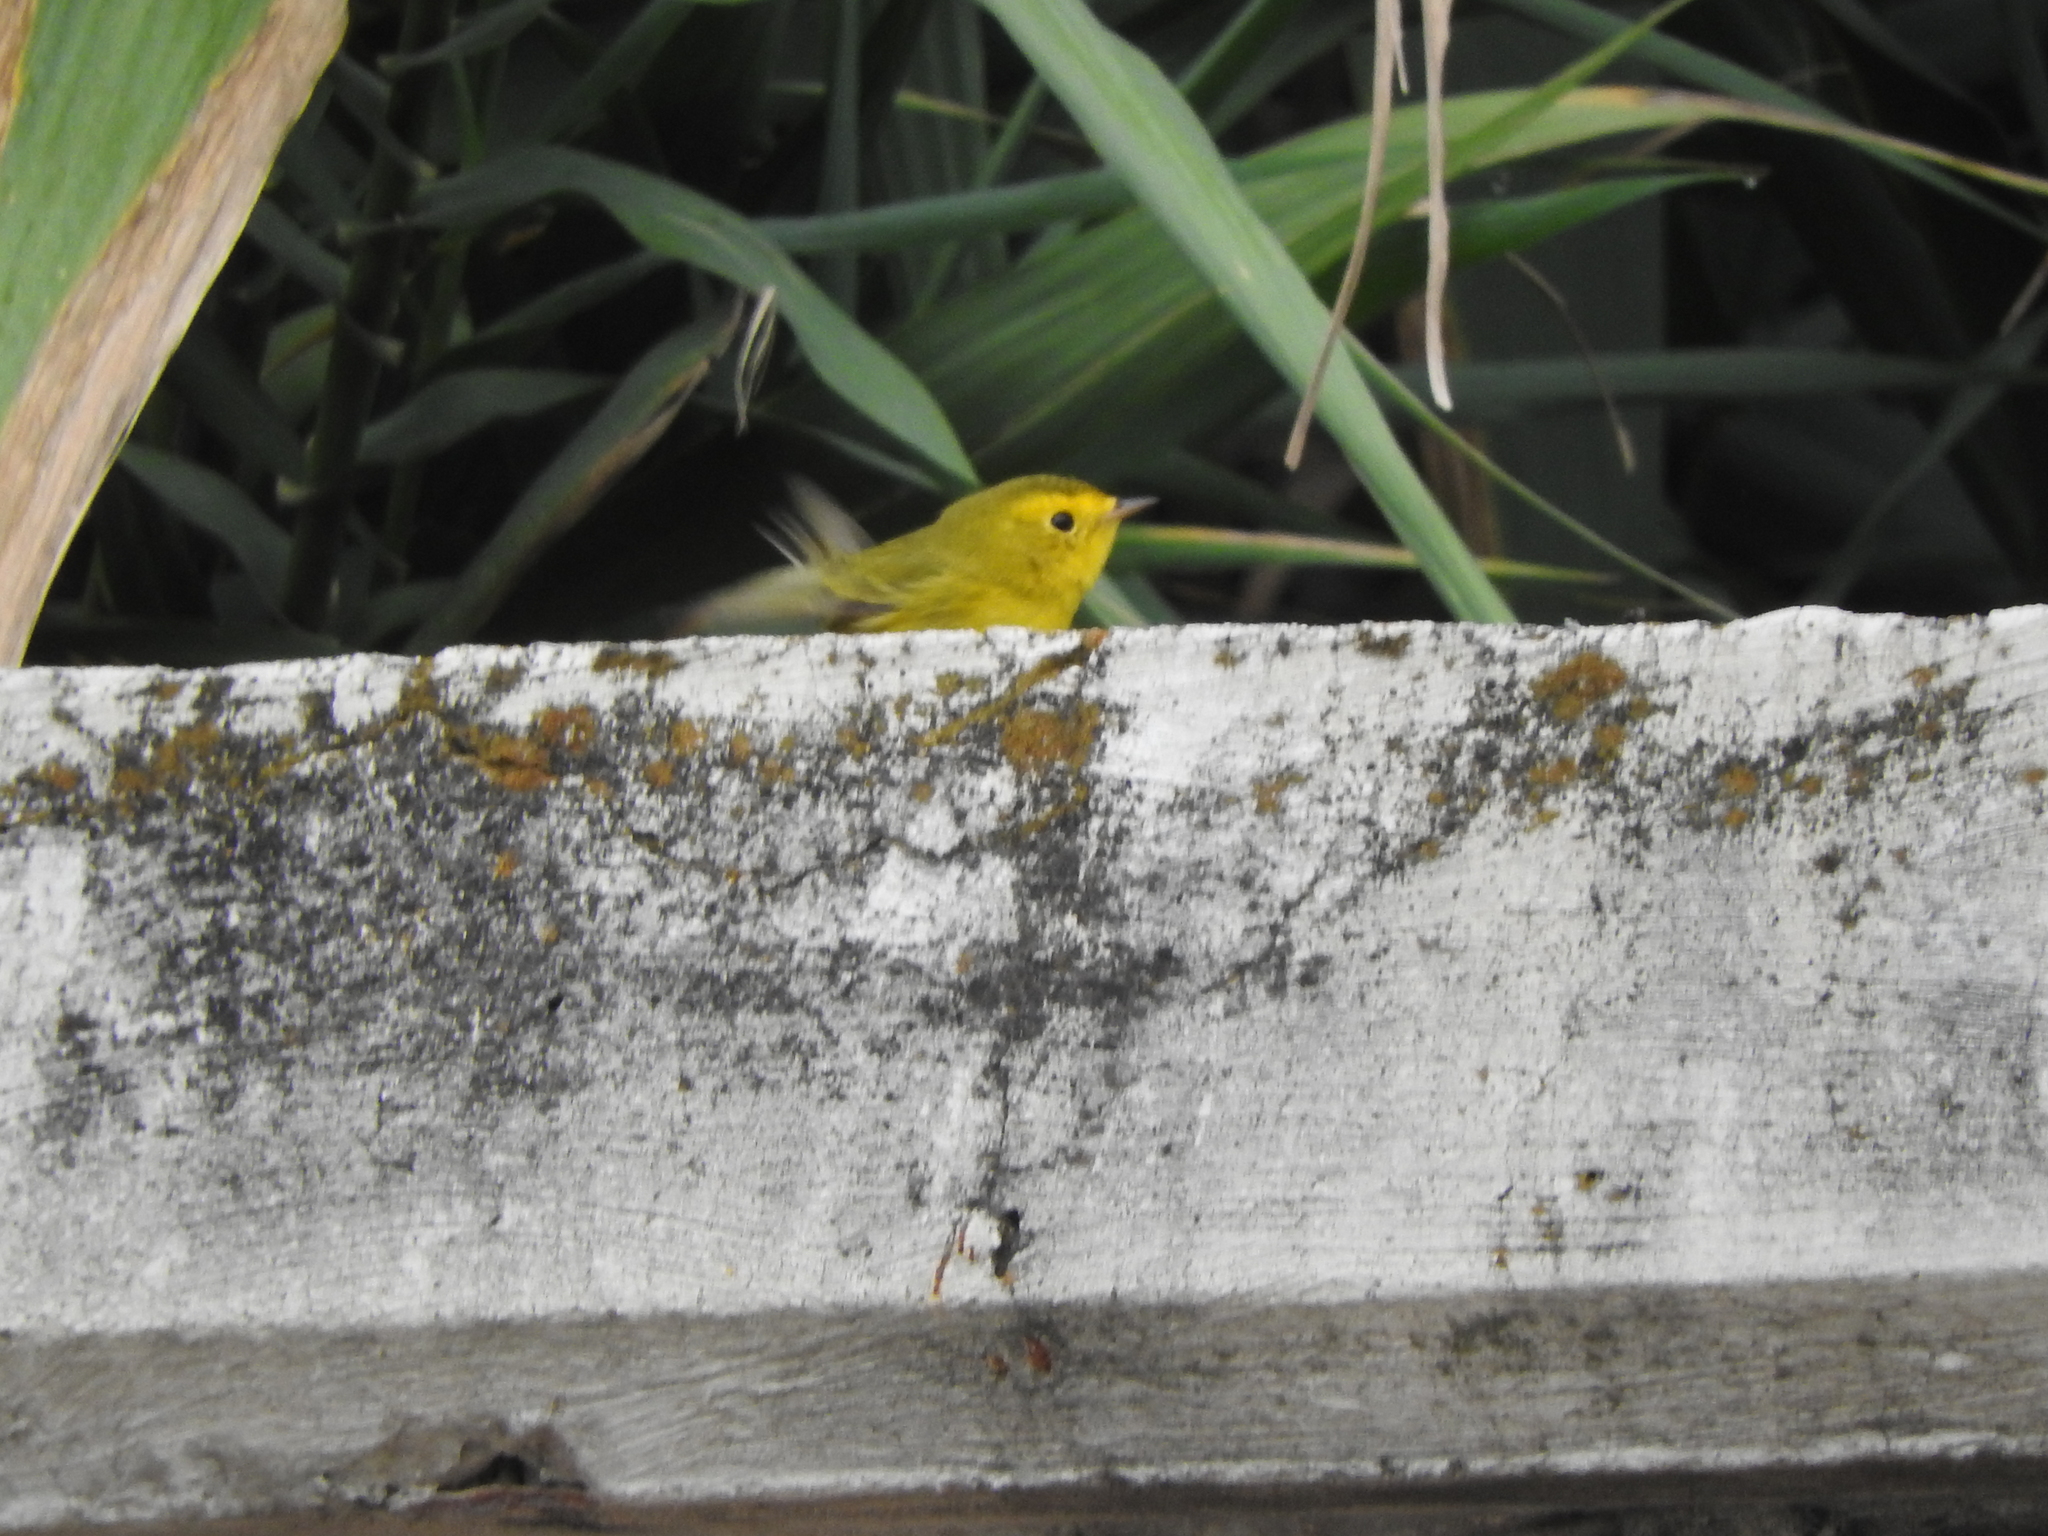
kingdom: Animalia
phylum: Chordata
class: Aves
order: Passeriformes
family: Parulidae
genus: Cardellina
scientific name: Cardellina pusilla
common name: Wilson's warbler
